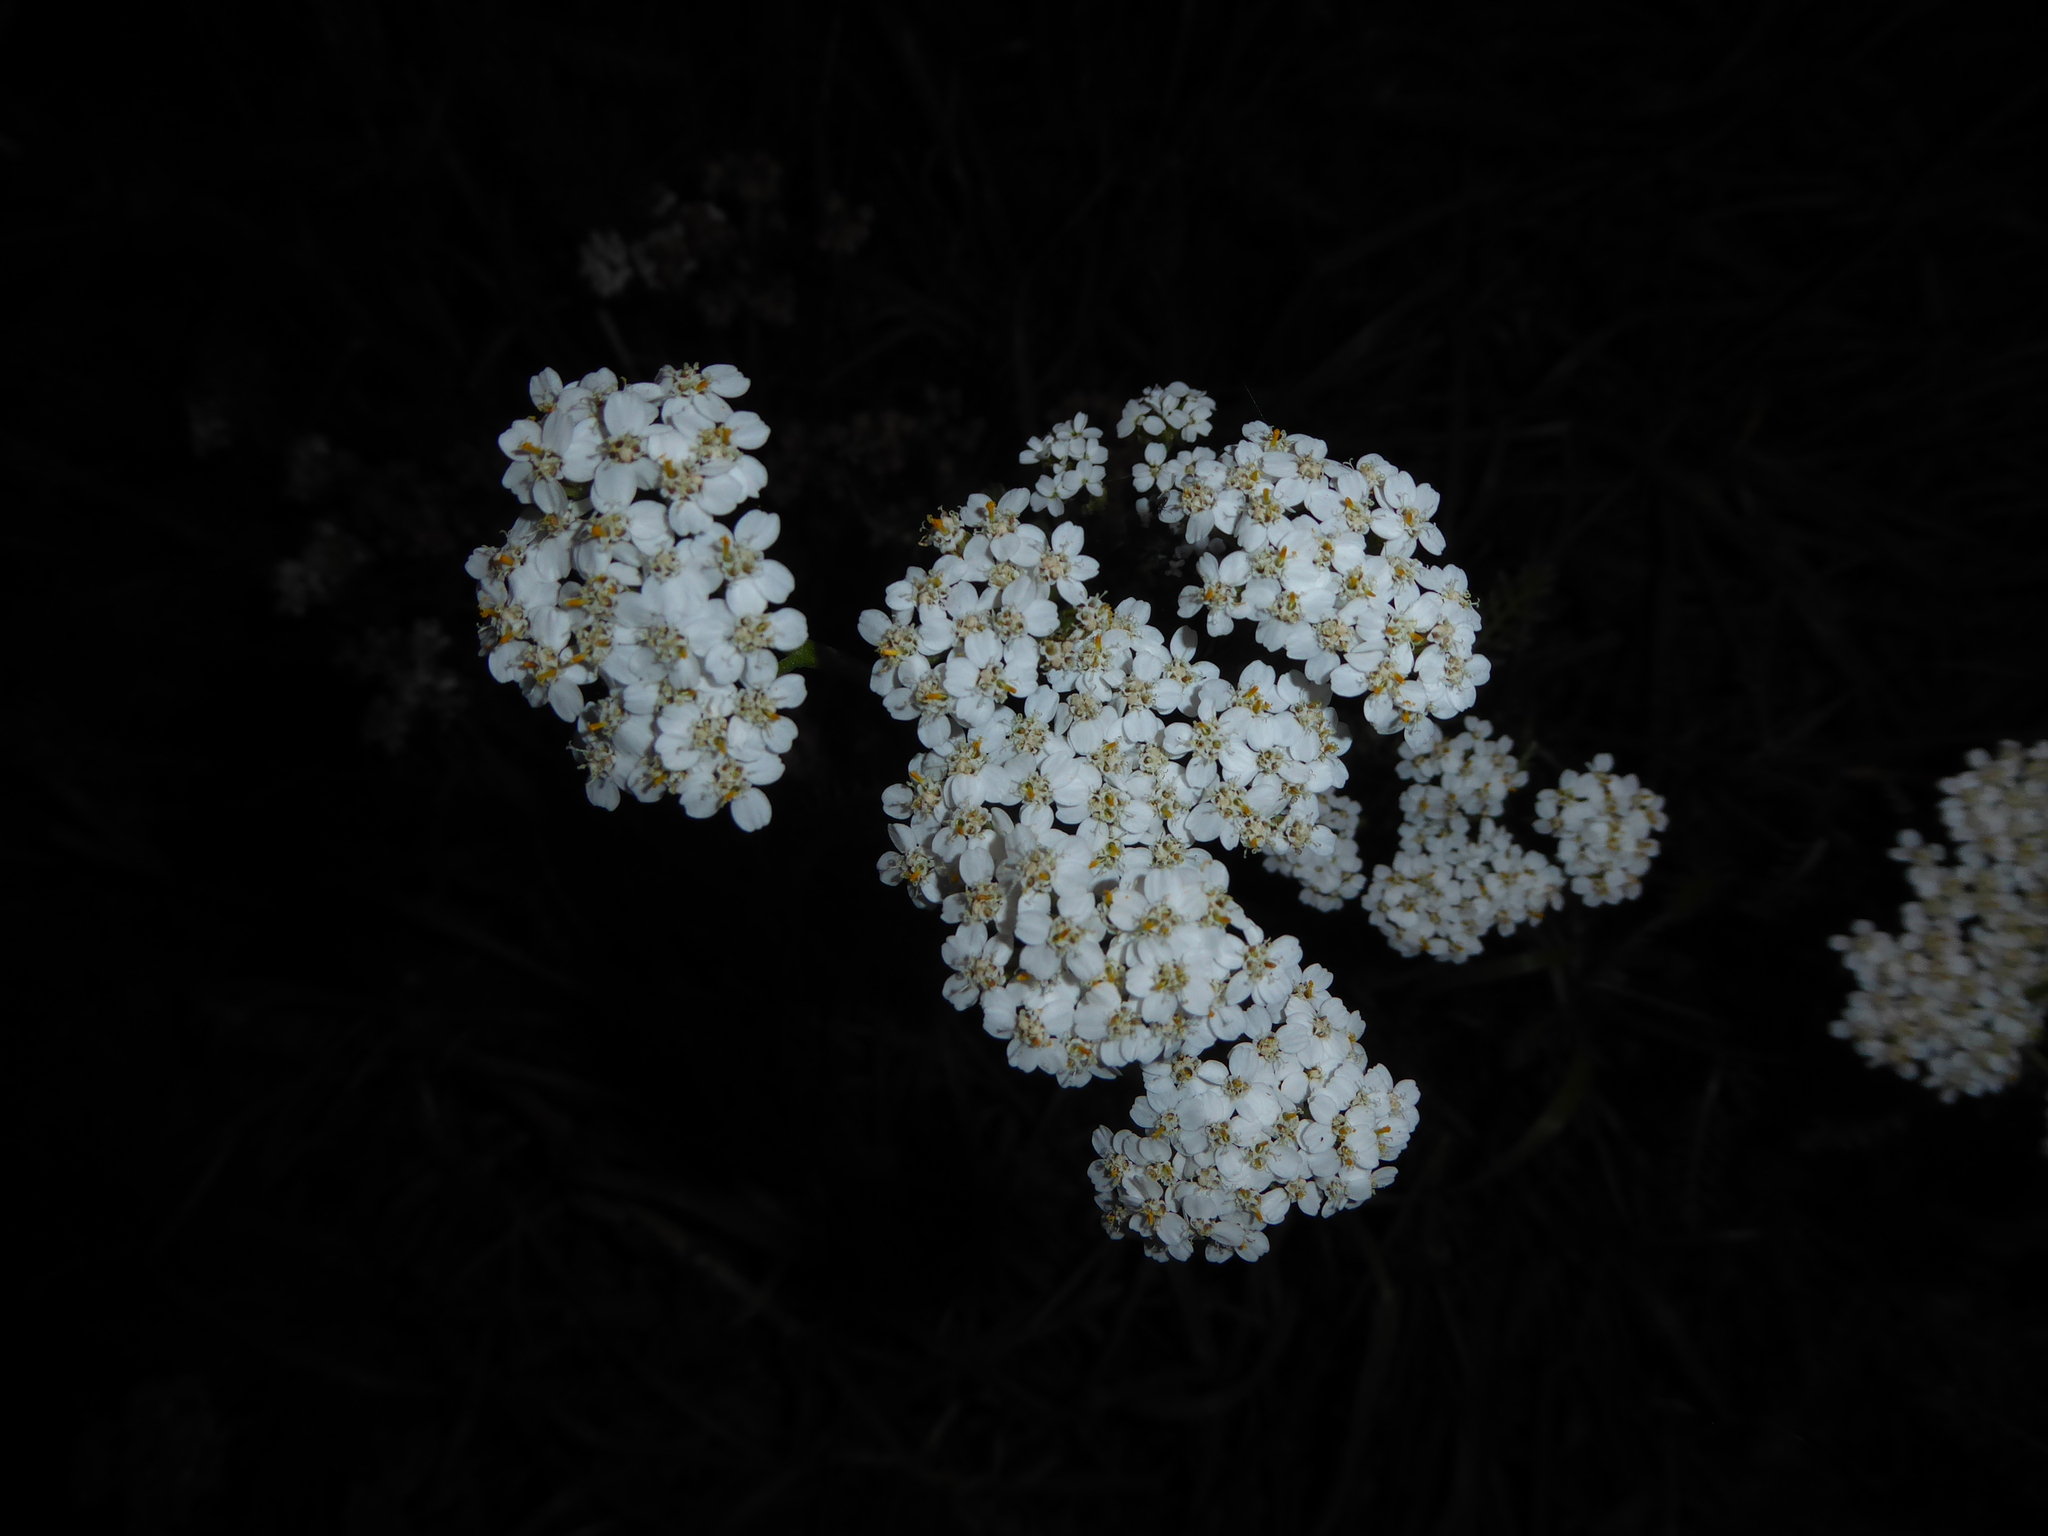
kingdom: Plantae
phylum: Tracheophyta
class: Magnoliopsida
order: Asterales
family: Asteraceae
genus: Achillea
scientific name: Achillea millefolium
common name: Yarrow
